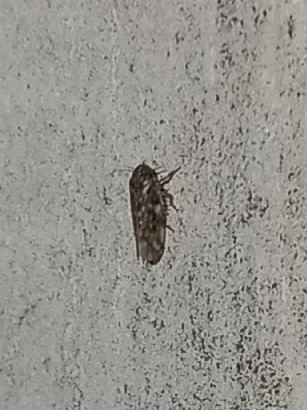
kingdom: Animalia
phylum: Arthropoda
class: Insecta
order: Hemiptera
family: Cicadellidae
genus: Xestocephalus
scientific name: Xestocephalus superbus
